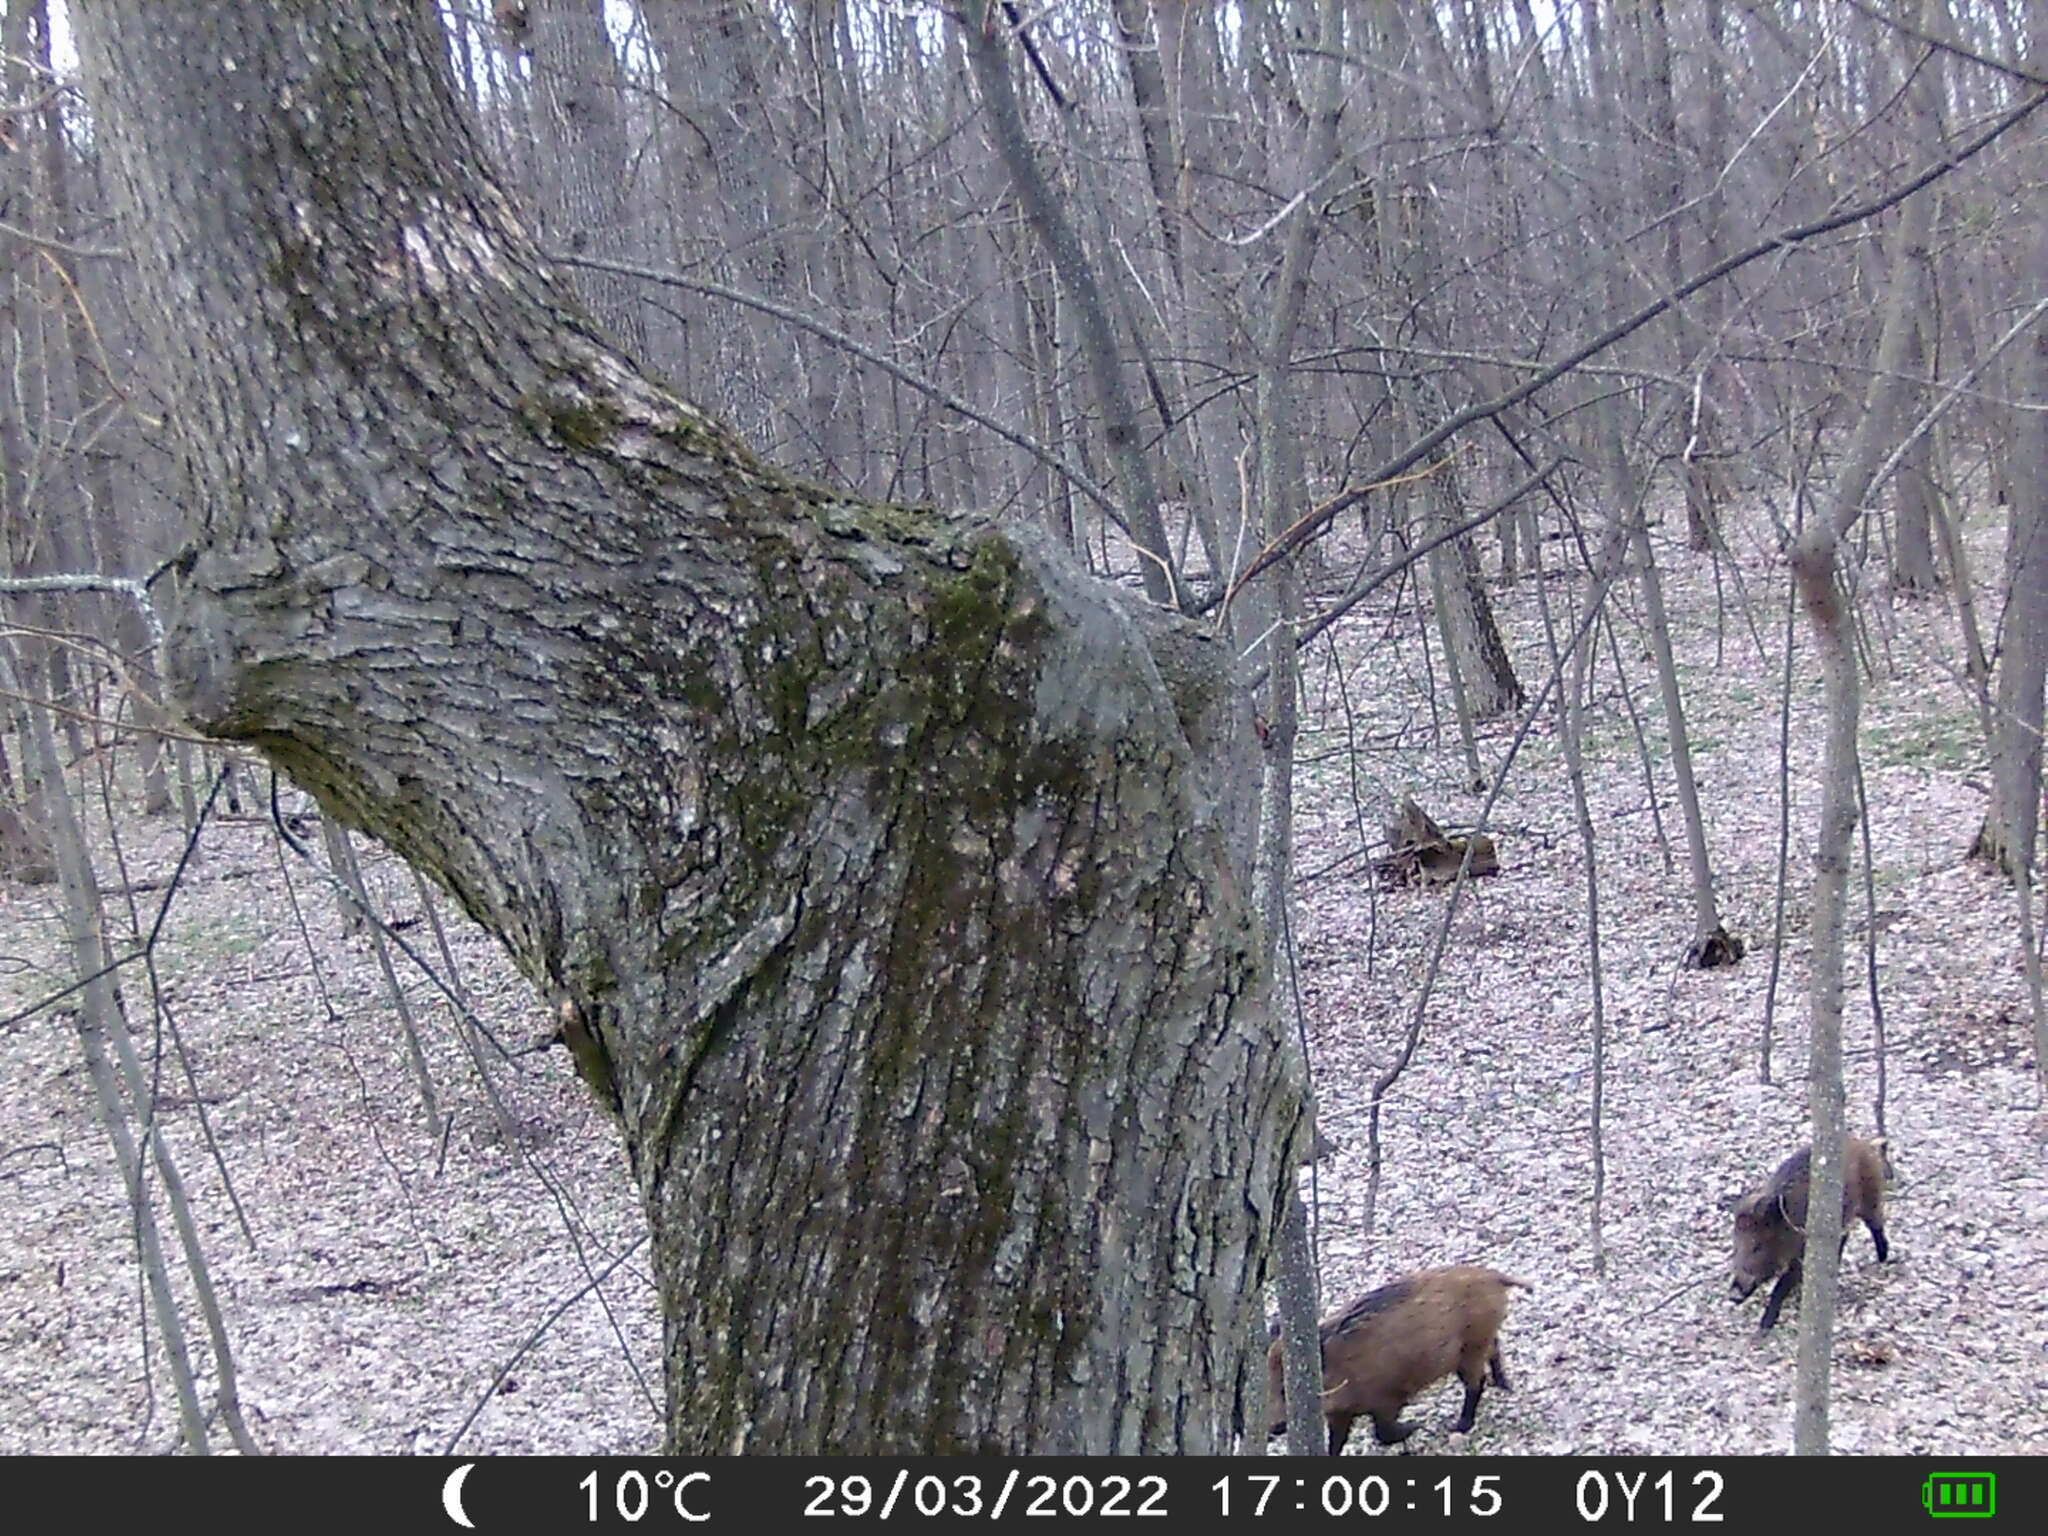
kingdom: Animalia
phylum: Chordata
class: Mammalia
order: Artiodactyla
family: Suidae
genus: Sus
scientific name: Sus scrofa
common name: Wild boar
